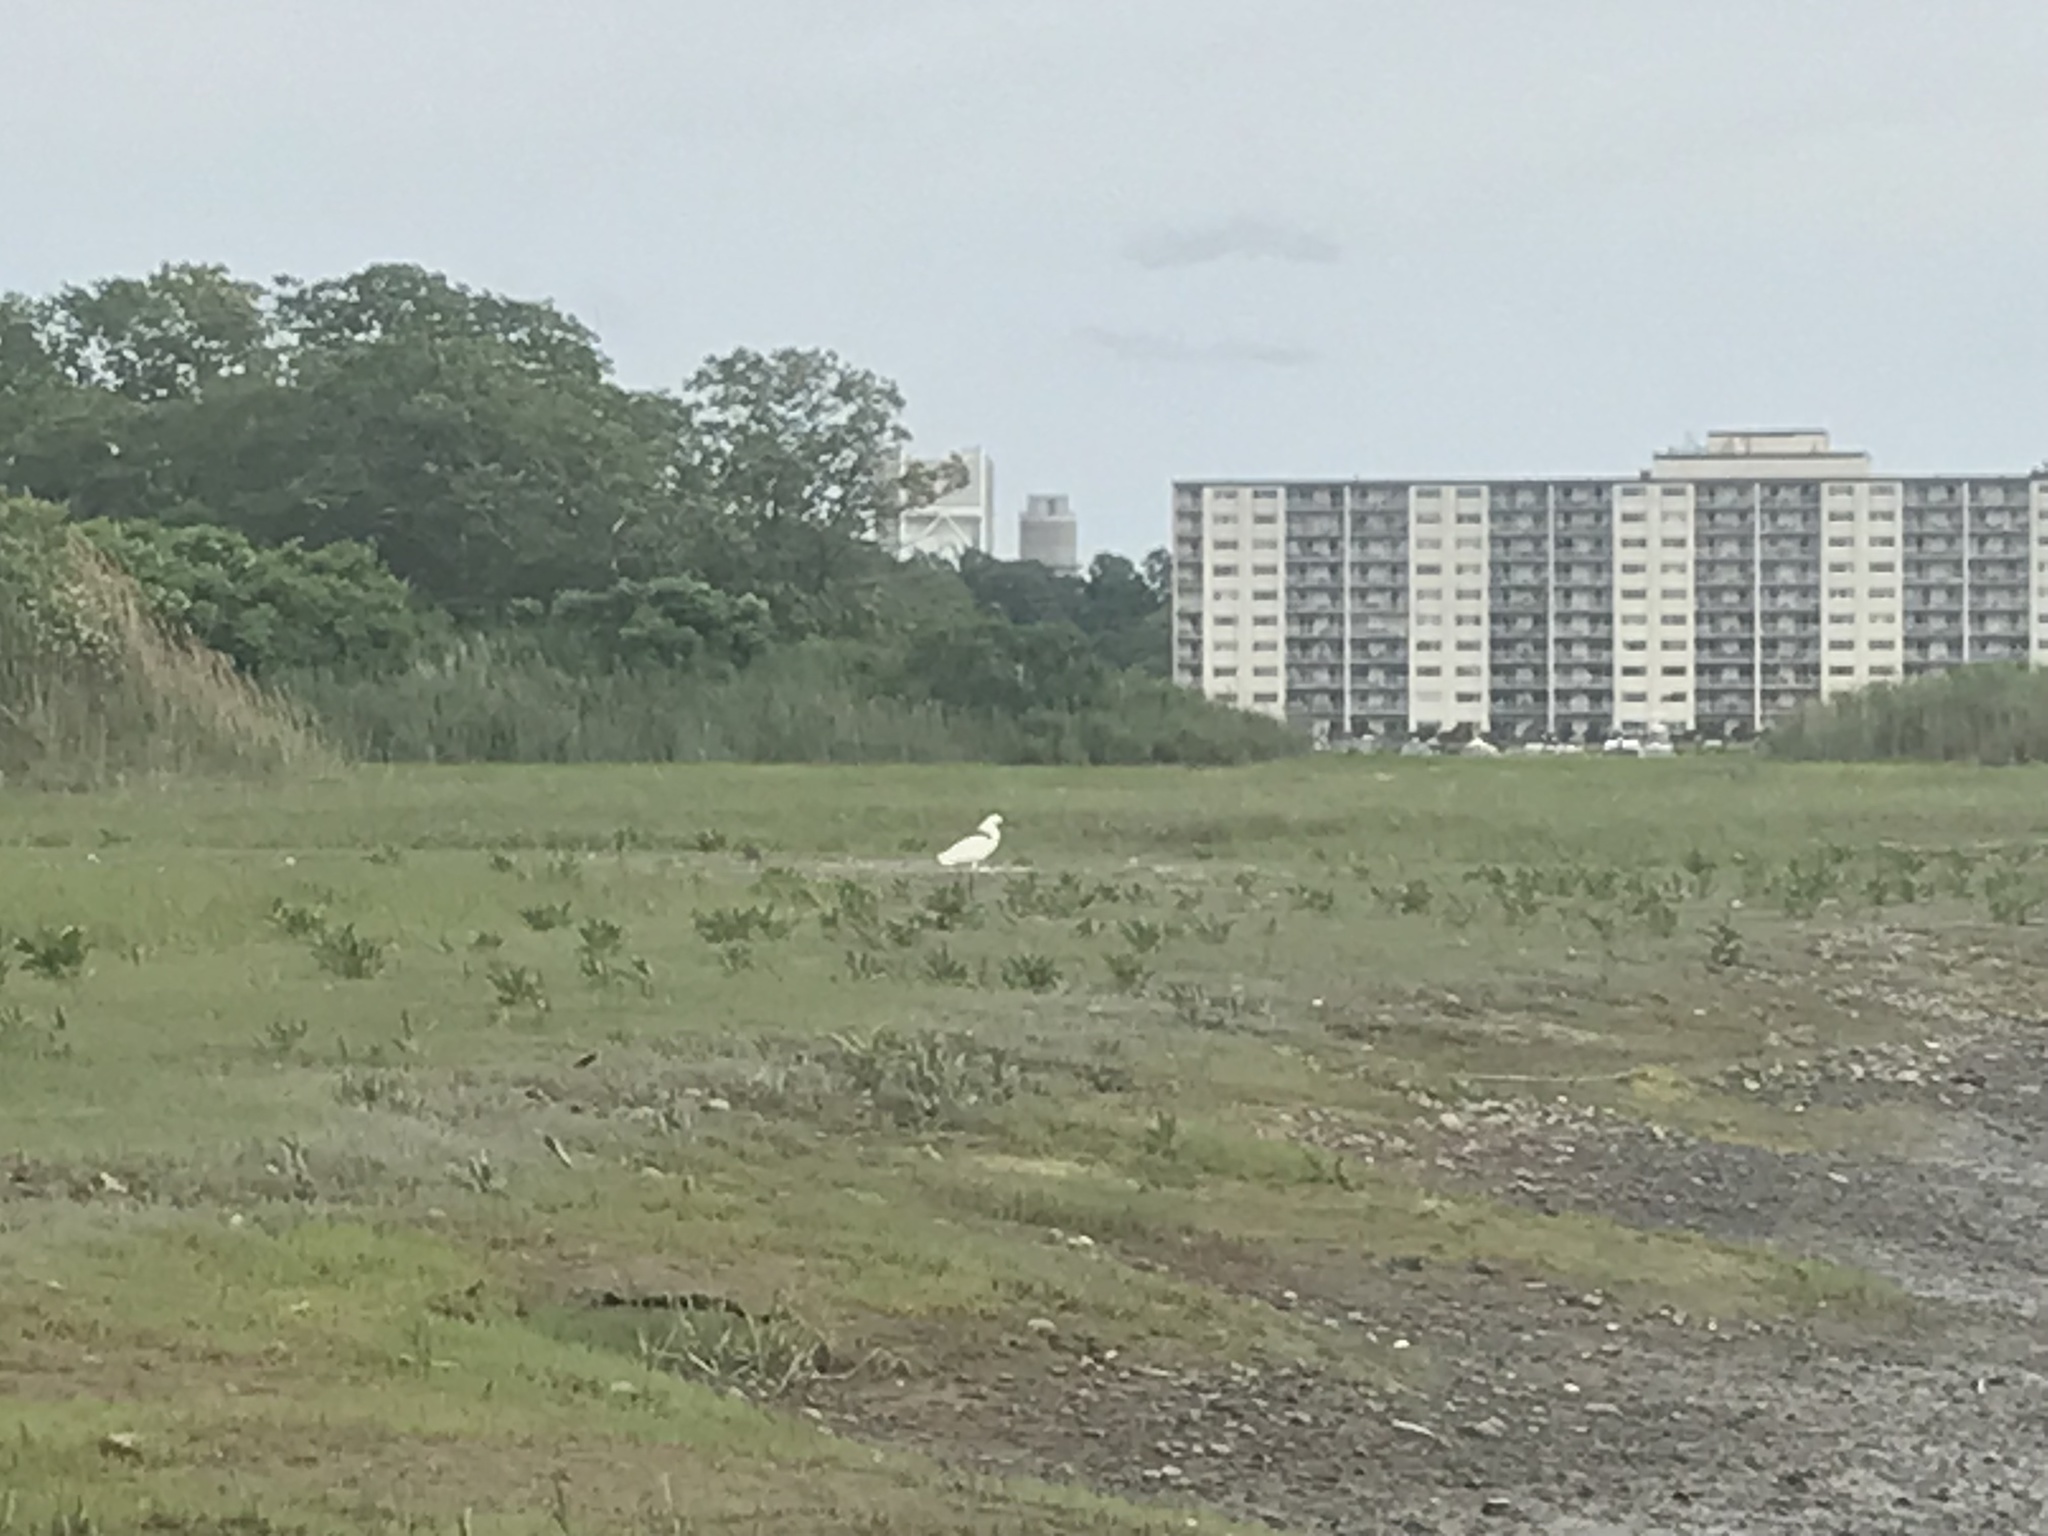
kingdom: Animalia
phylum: Chordata
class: Aves
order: Pelecaniformes
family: Ardeidae
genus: Egretta
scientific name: Egretta thula
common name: Snowy egret
